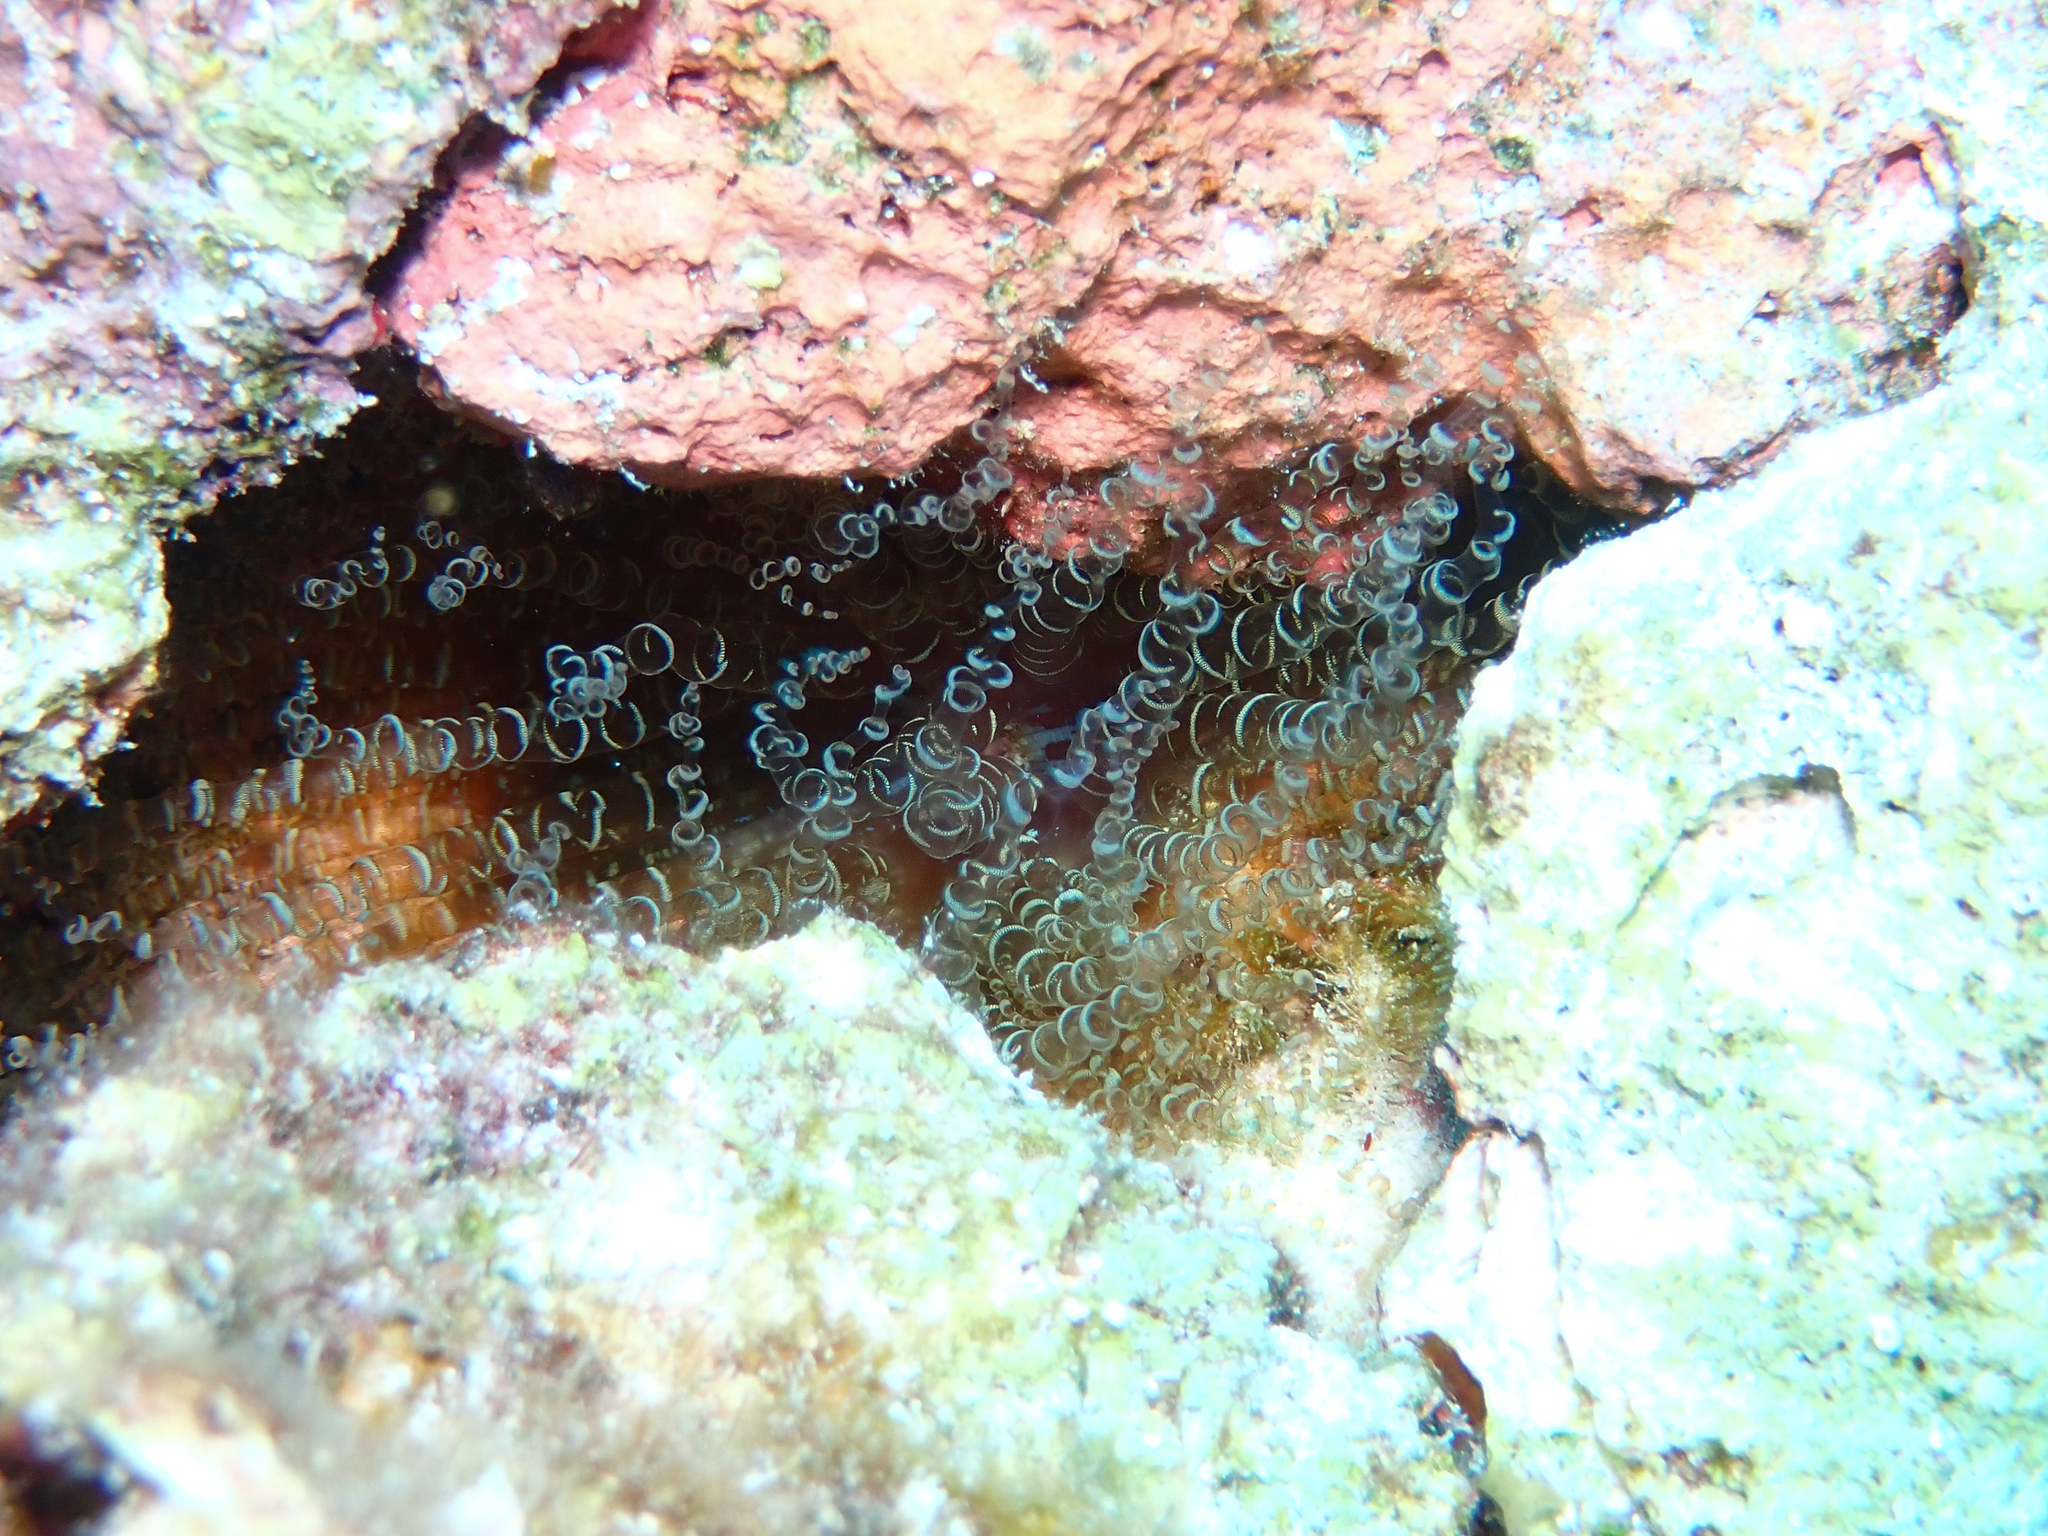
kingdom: Animalia
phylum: Cnidaria
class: Anthozoa
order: Actiniaria
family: Aiptasiidae
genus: Bartholomea
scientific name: Bartholomea annulata
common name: Corkscrew anemone
